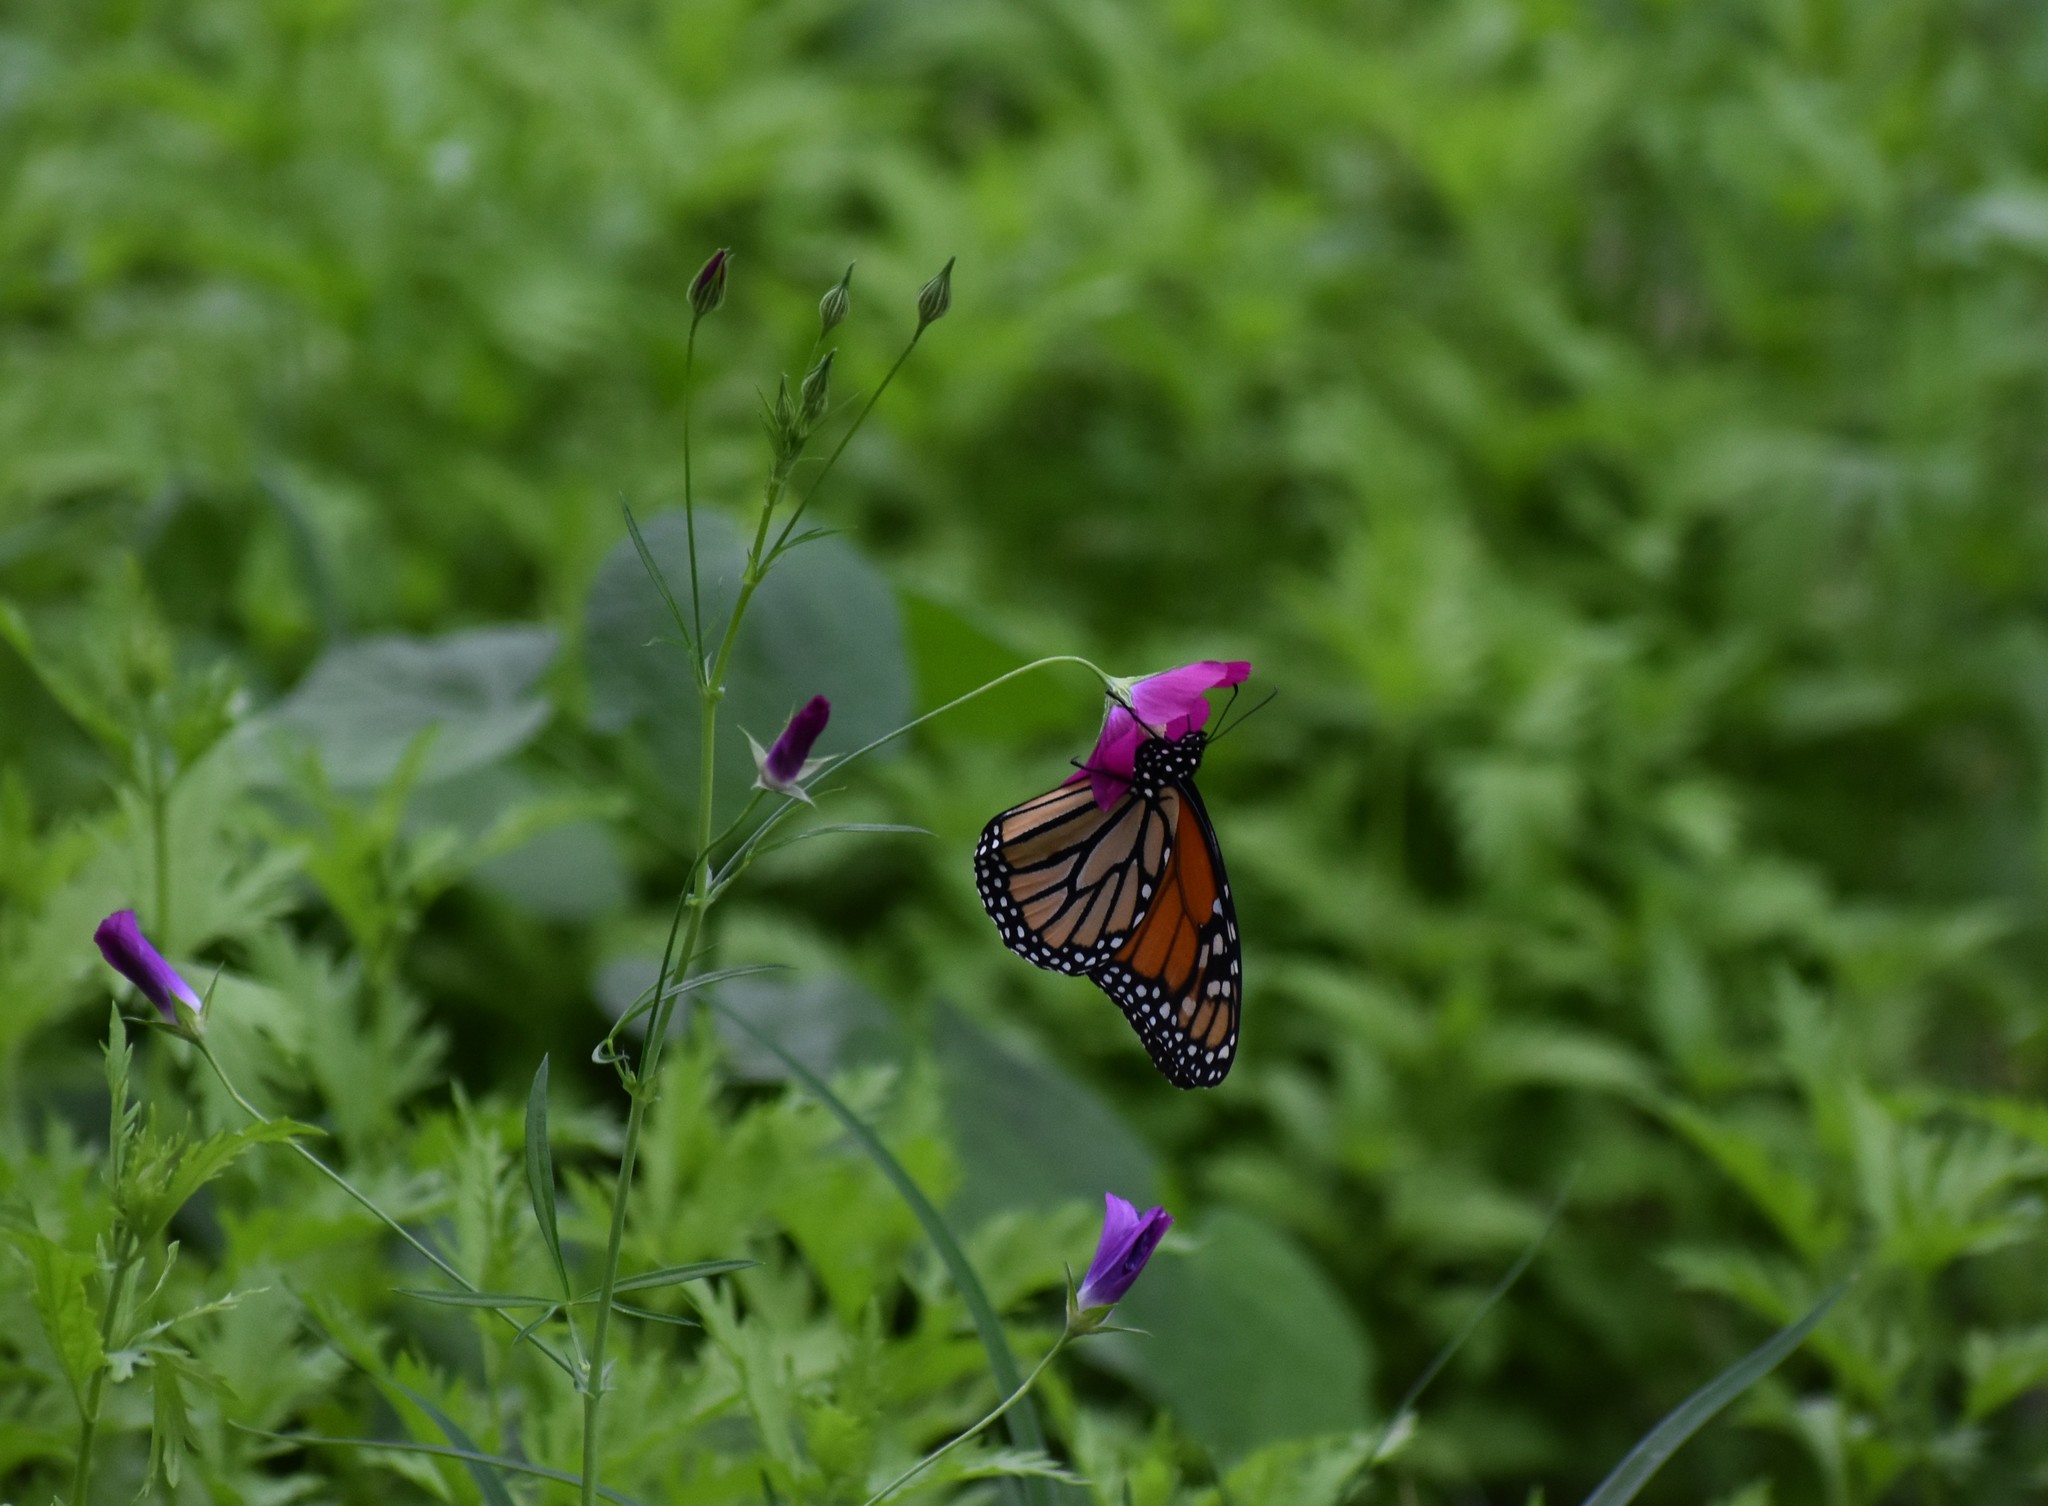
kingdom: Animalia
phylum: Arthropoda
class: Insecta
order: Lepidoptera
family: Nymphalidae
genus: Danaus
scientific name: Danaus plexippus
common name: Monarch
